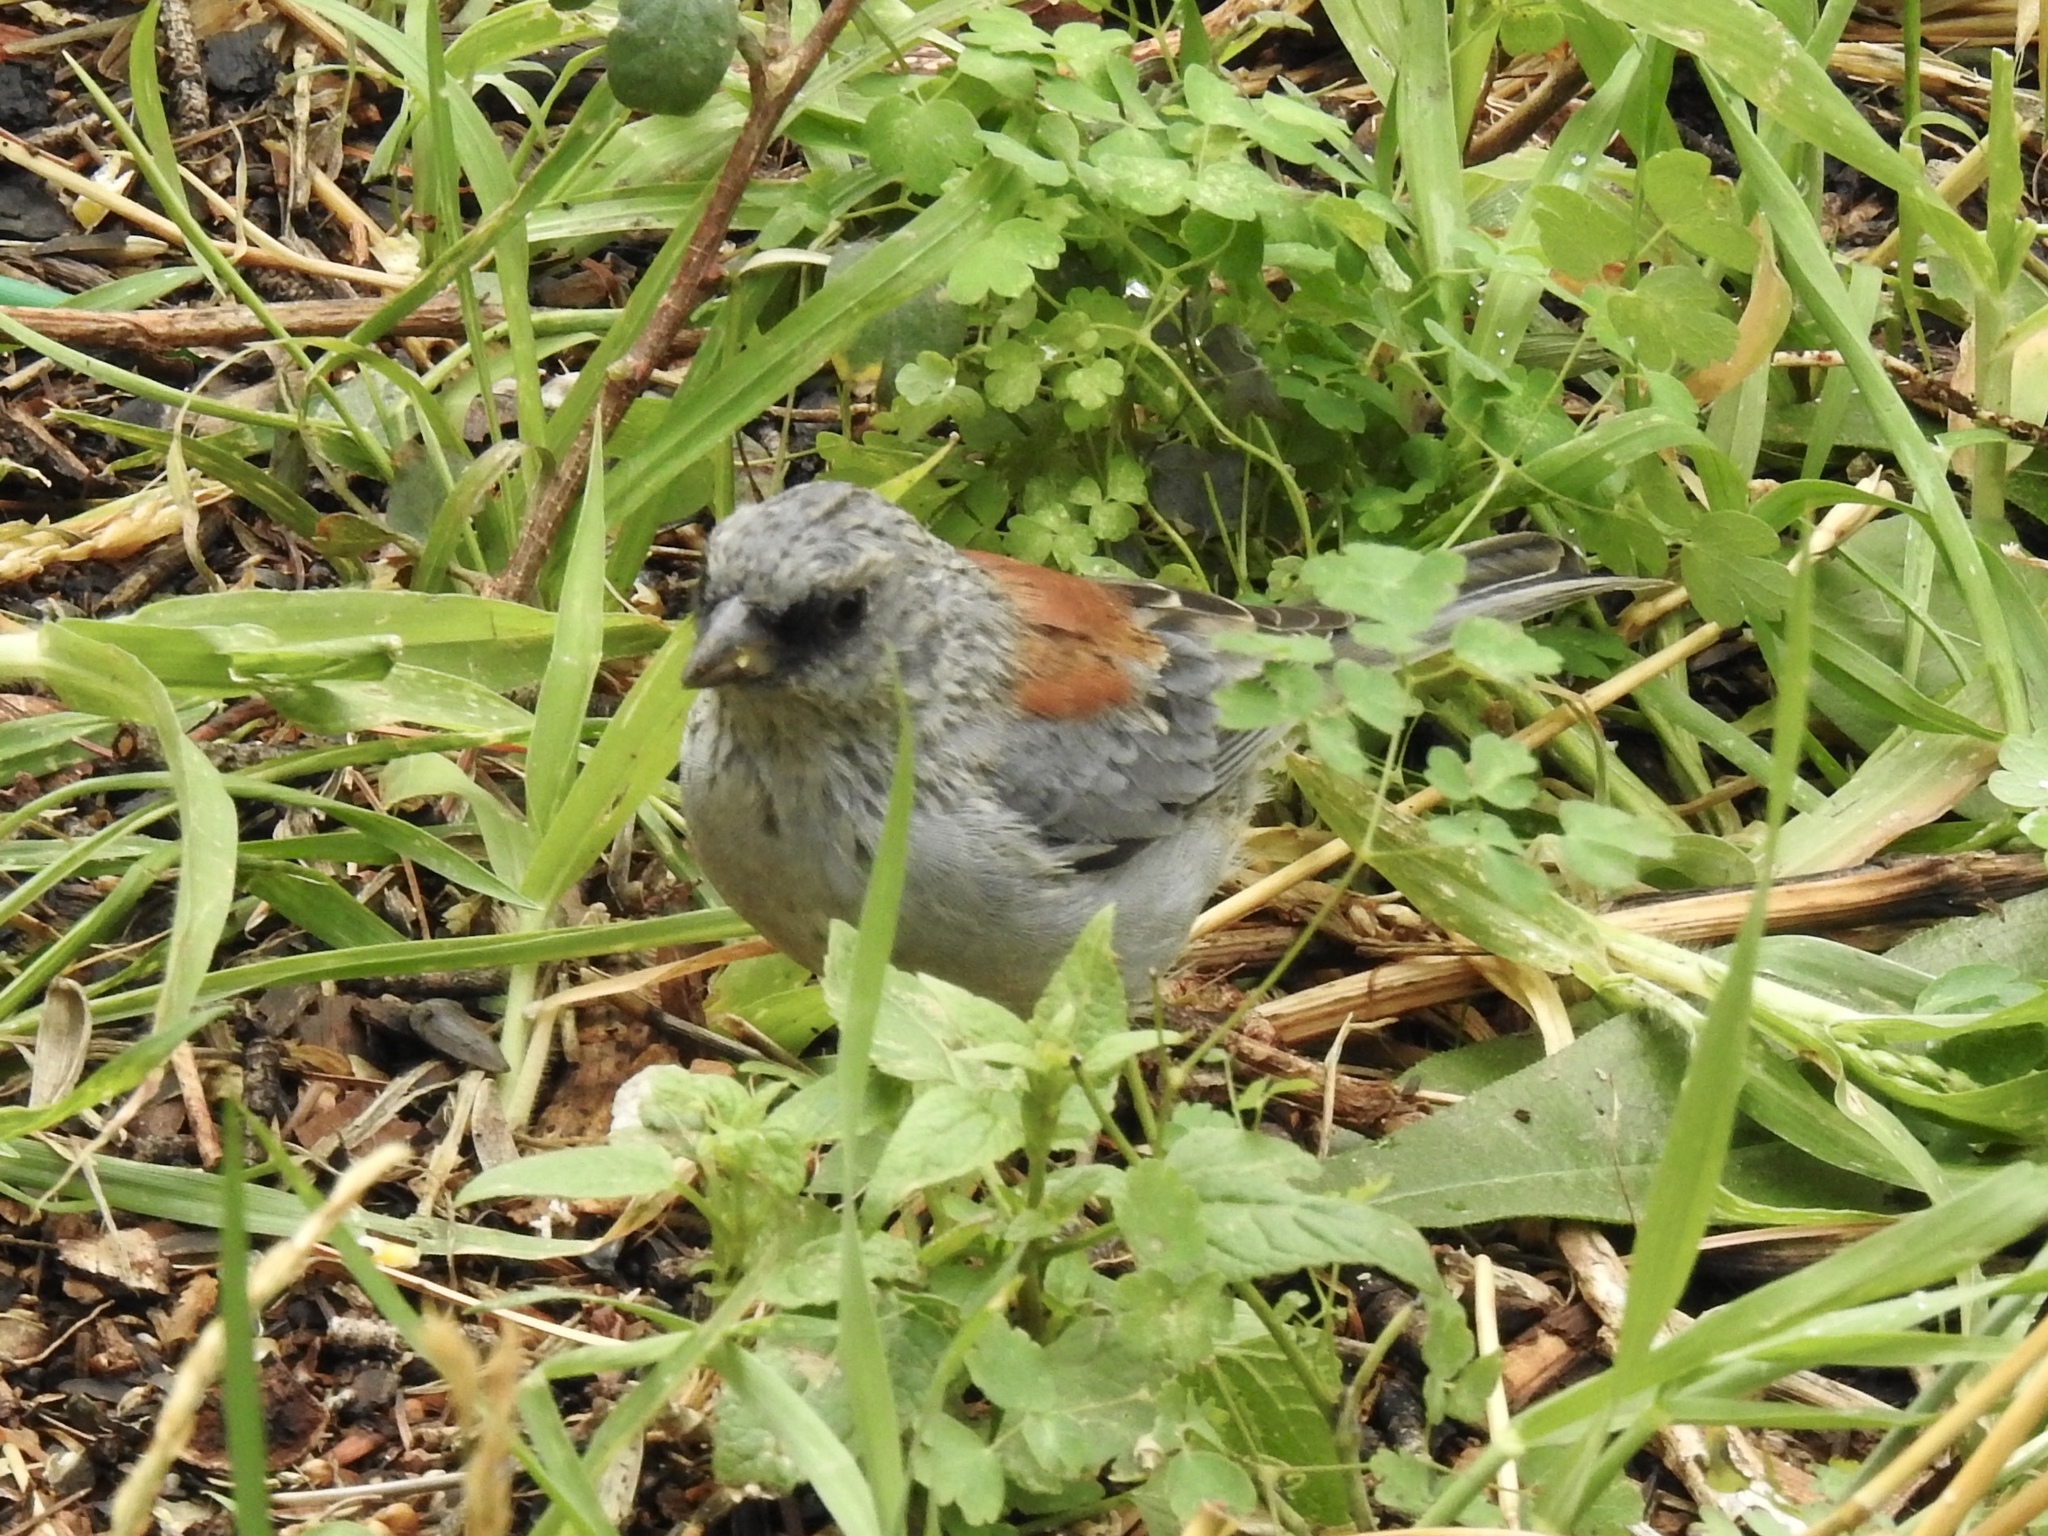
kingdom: Animalia
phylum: Chordata
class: Aves
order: Passeriformes
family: Passerellidae
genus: Junco
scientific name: Junco hyemalis
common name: Dark-eyed junco
